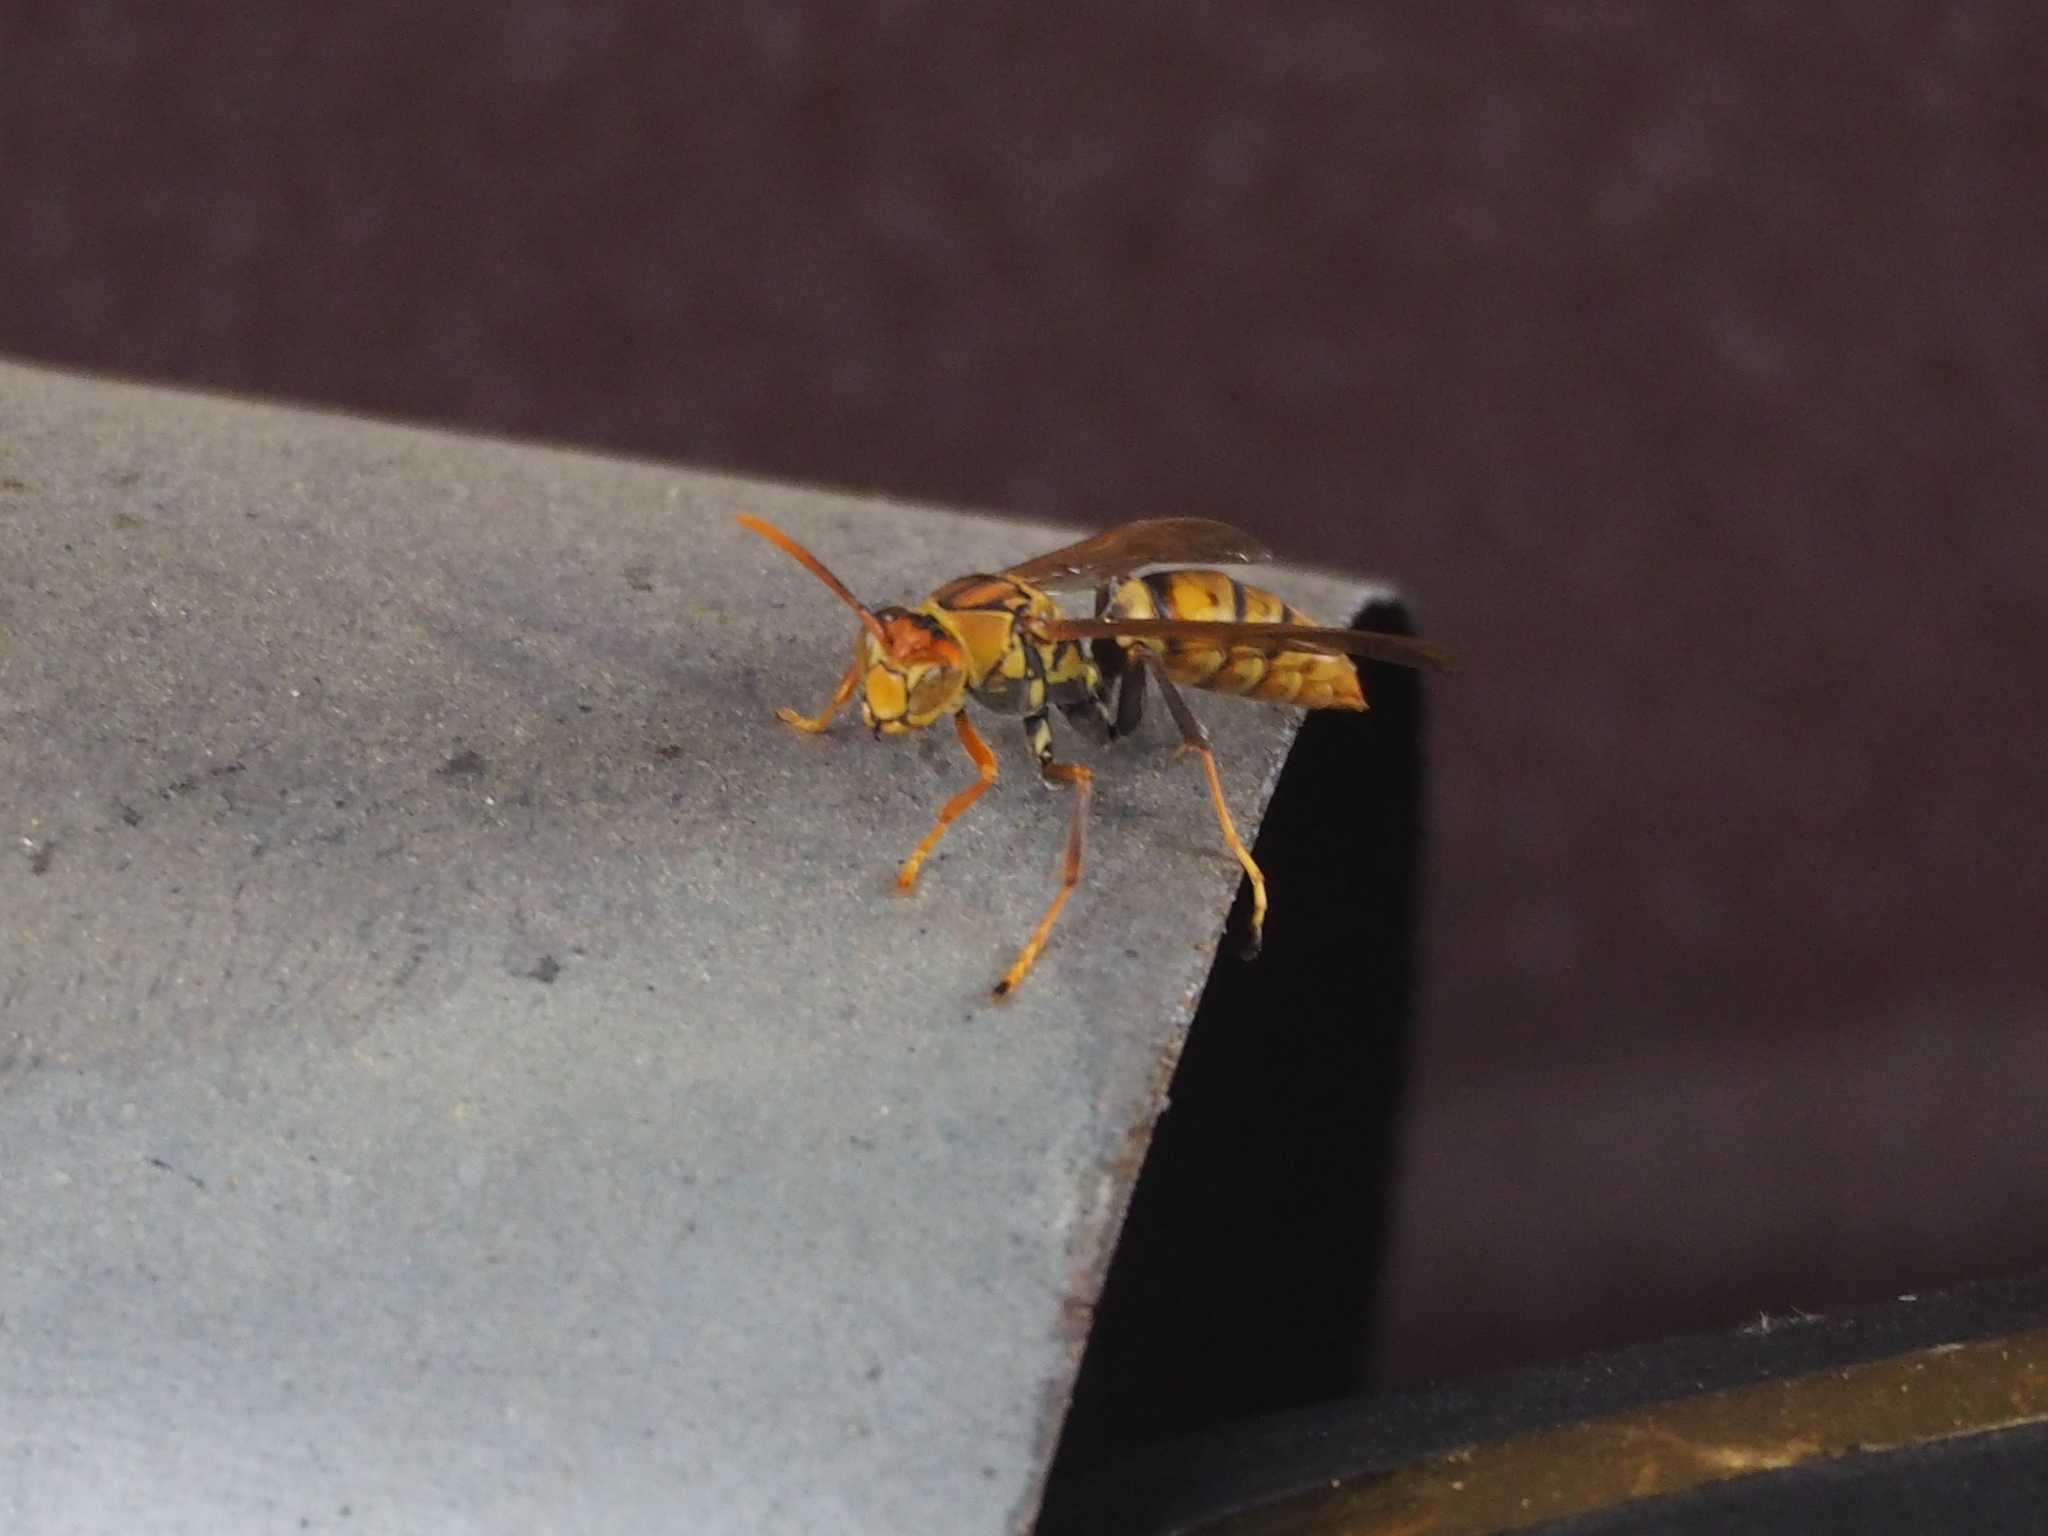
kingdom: Animalia
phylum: Arthropoda
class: Insecta
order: Hymenoptera
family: Eumenidae
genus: Polistes
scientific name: Polistes japonicus
